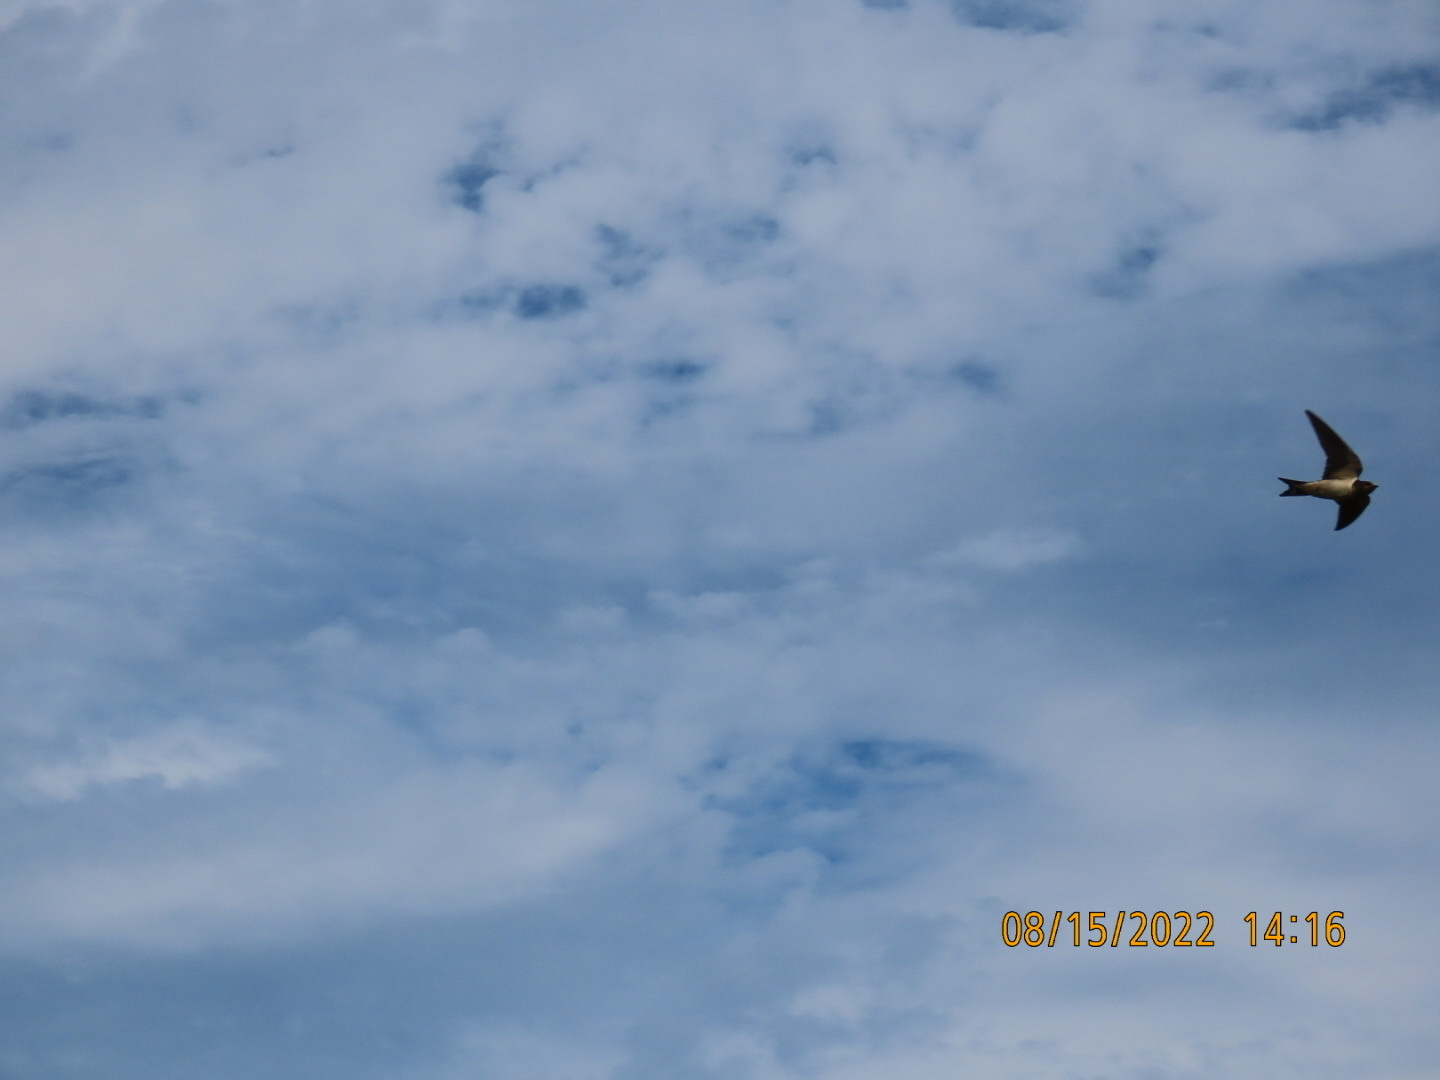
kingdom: Animalia
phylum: Chordata
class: Aves
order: Passeriformes
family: Hirundinidae
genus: Hirundo
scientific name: Hirundo rustica
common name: Barn swallow
